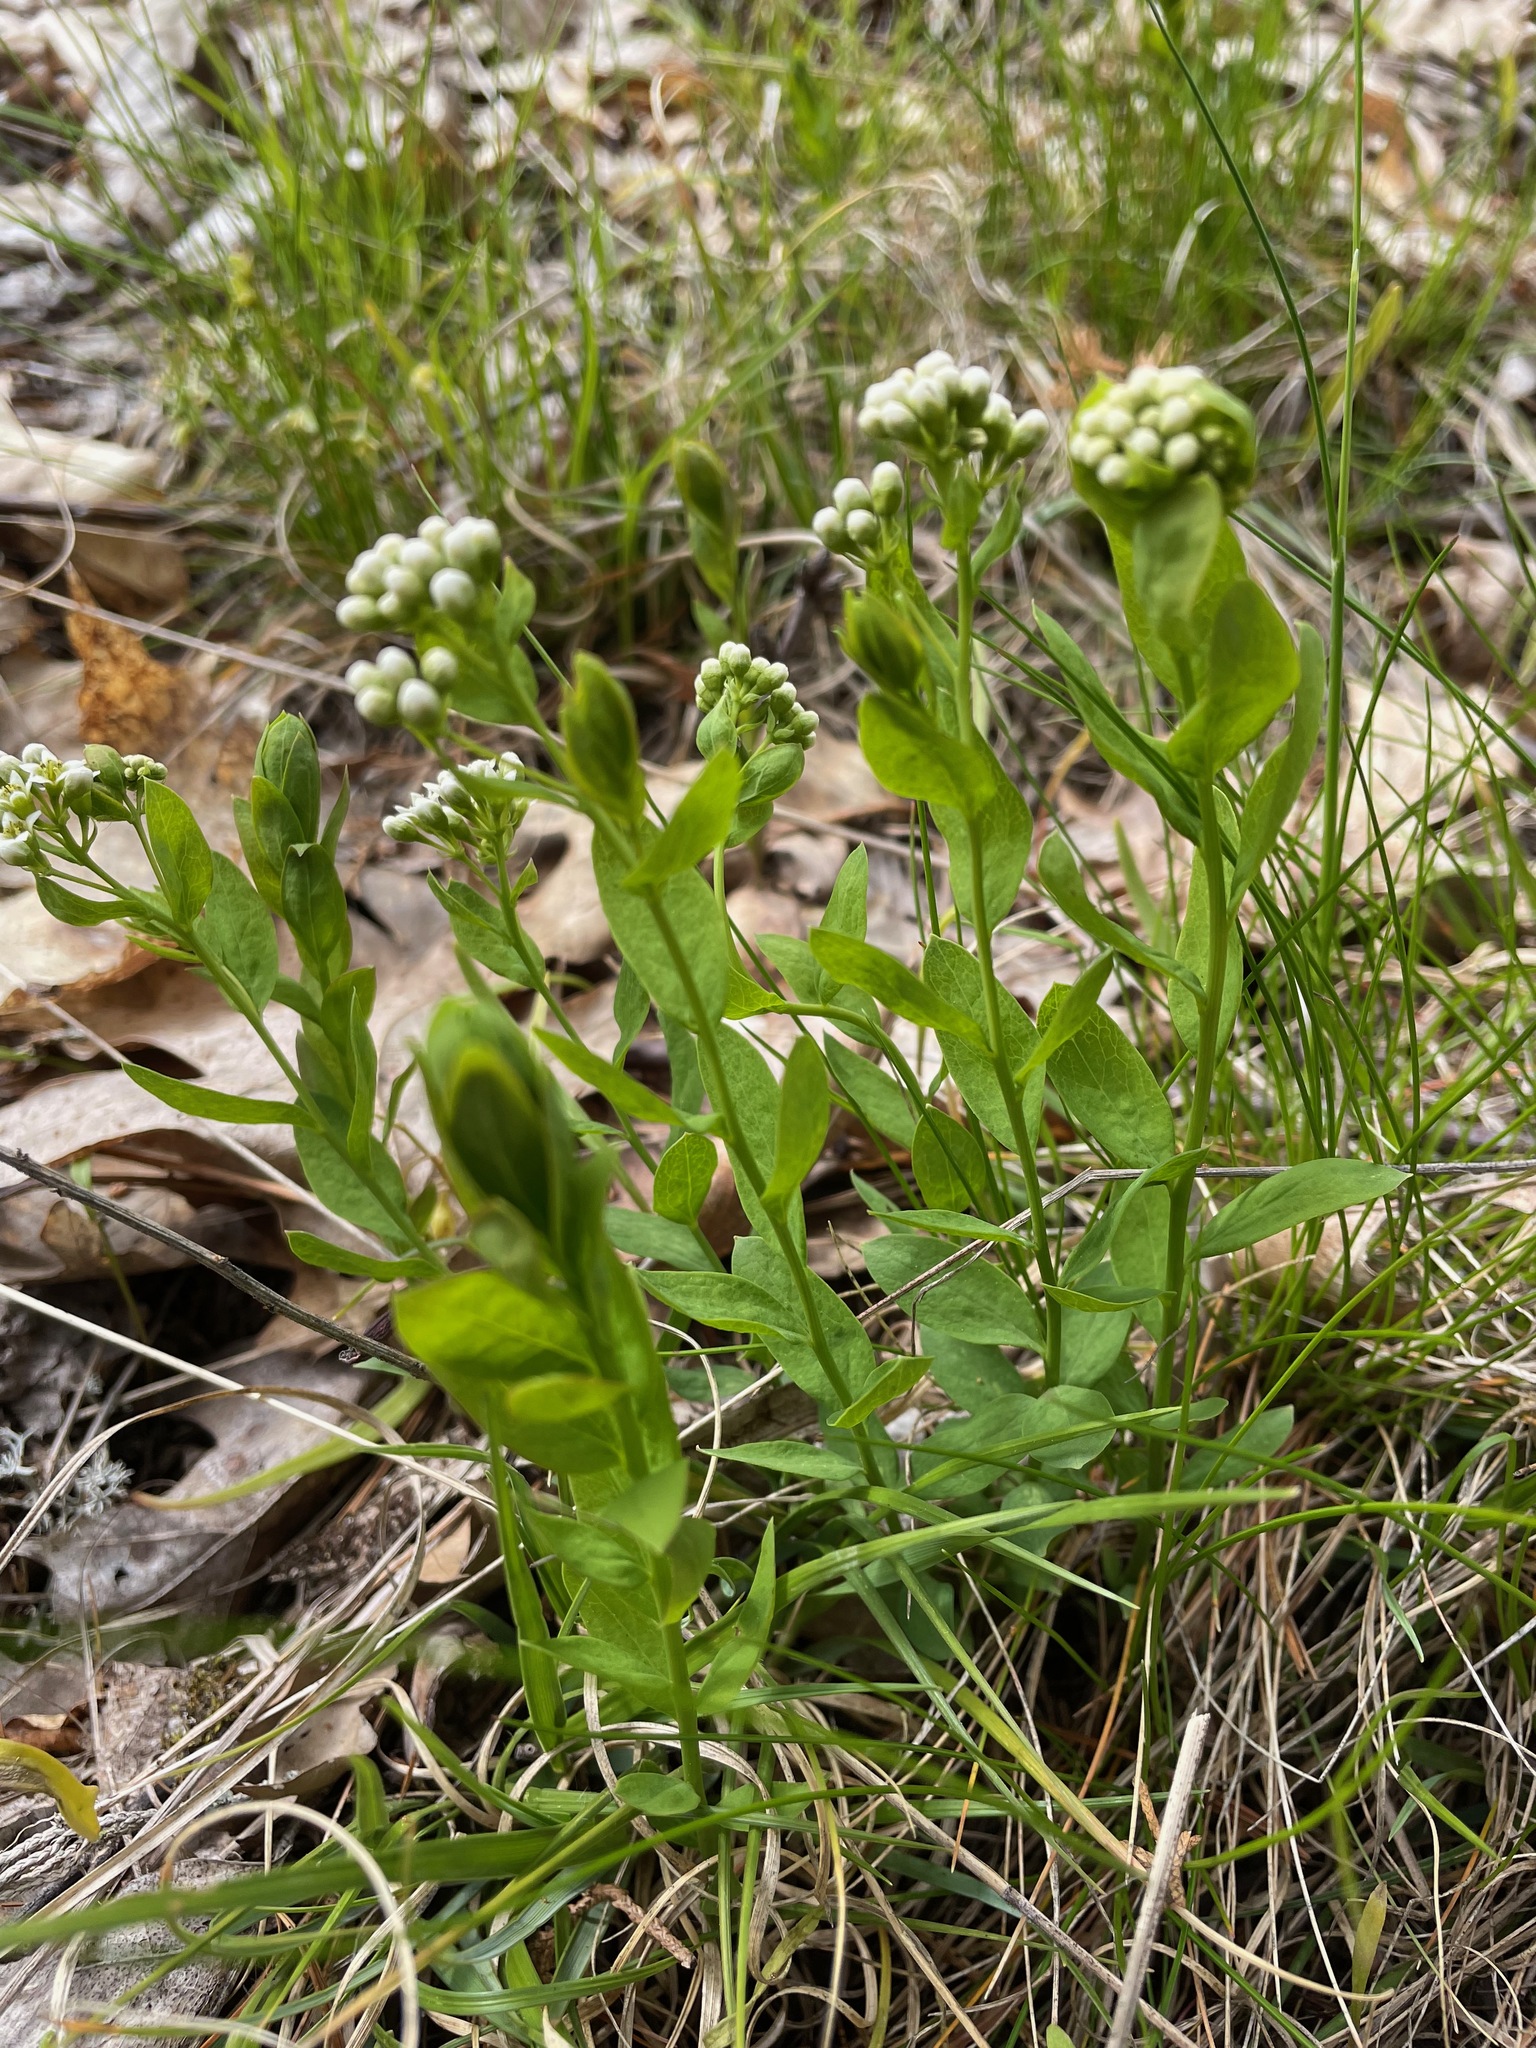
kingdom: Plantae
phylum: Tracheophyta
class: Magnoliopsida
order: Santalales
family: Comandraceae
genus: Comandra
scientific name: Comandra umbellata
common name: Bastard toadflax
